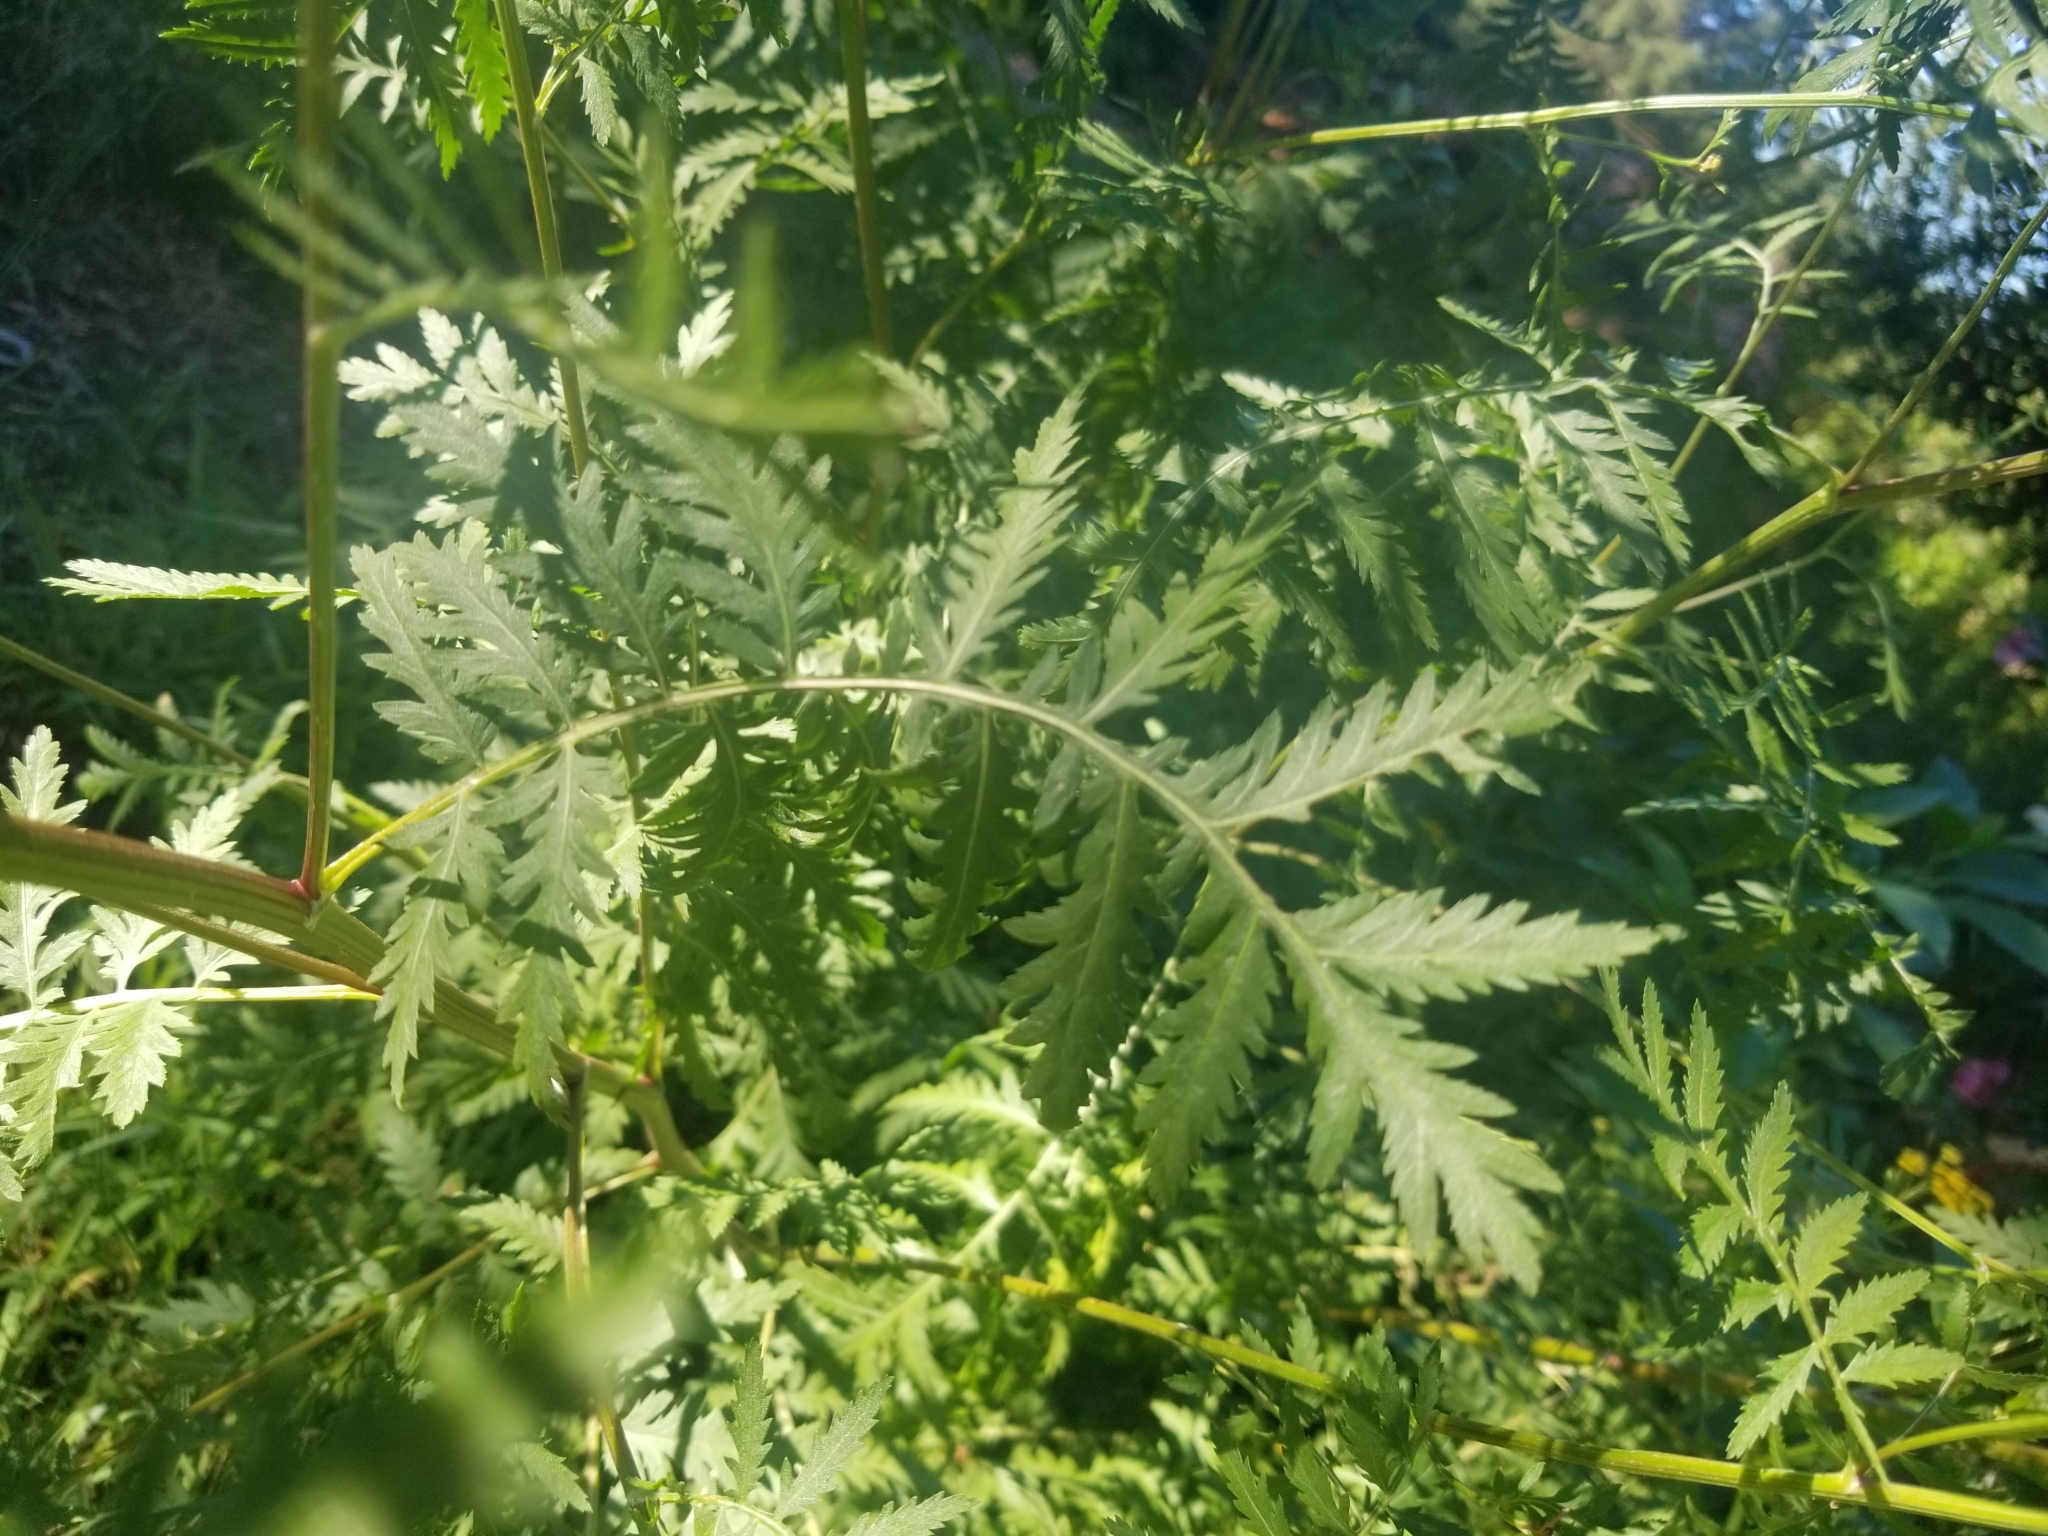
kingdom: Plantae
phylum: Tracheophyta
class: Magnoliopsida
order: Asterales
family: Asteraceae
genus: Tanacetum
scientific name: Tanacetum vulgare
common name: Common tansy
